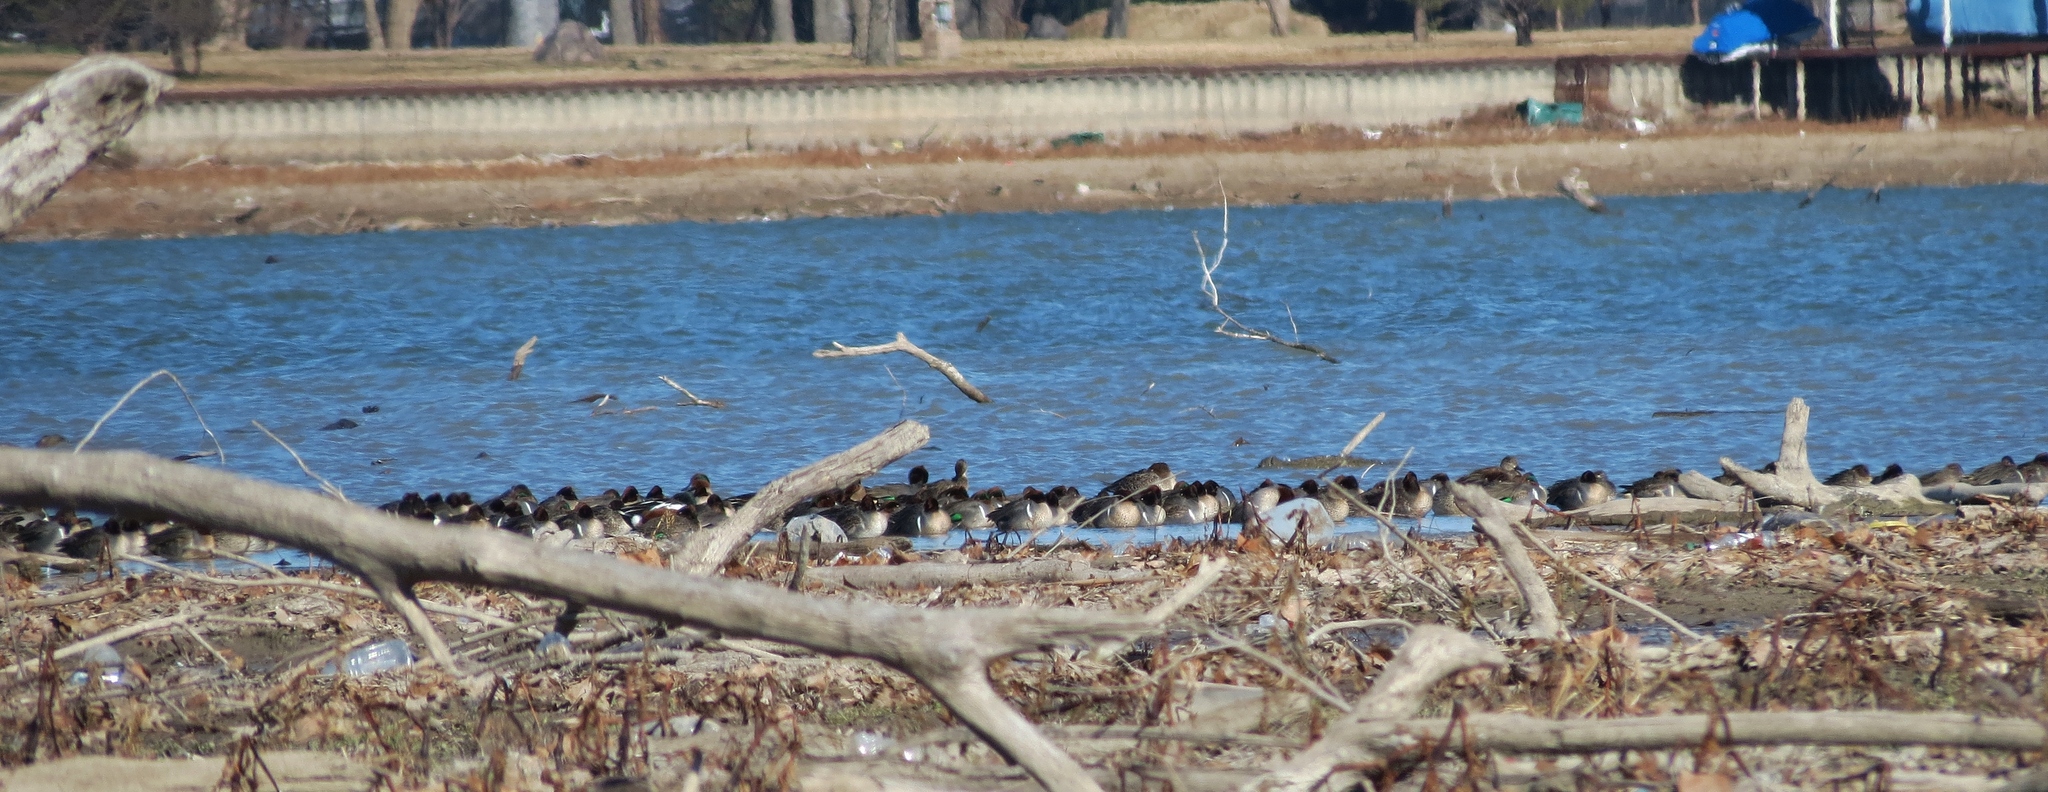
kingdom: Animalia
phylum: Chordata
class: Aves
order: Anseriformes
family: Anatidae
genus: Anas
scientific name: Anas crecca
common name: Eurasian teal
